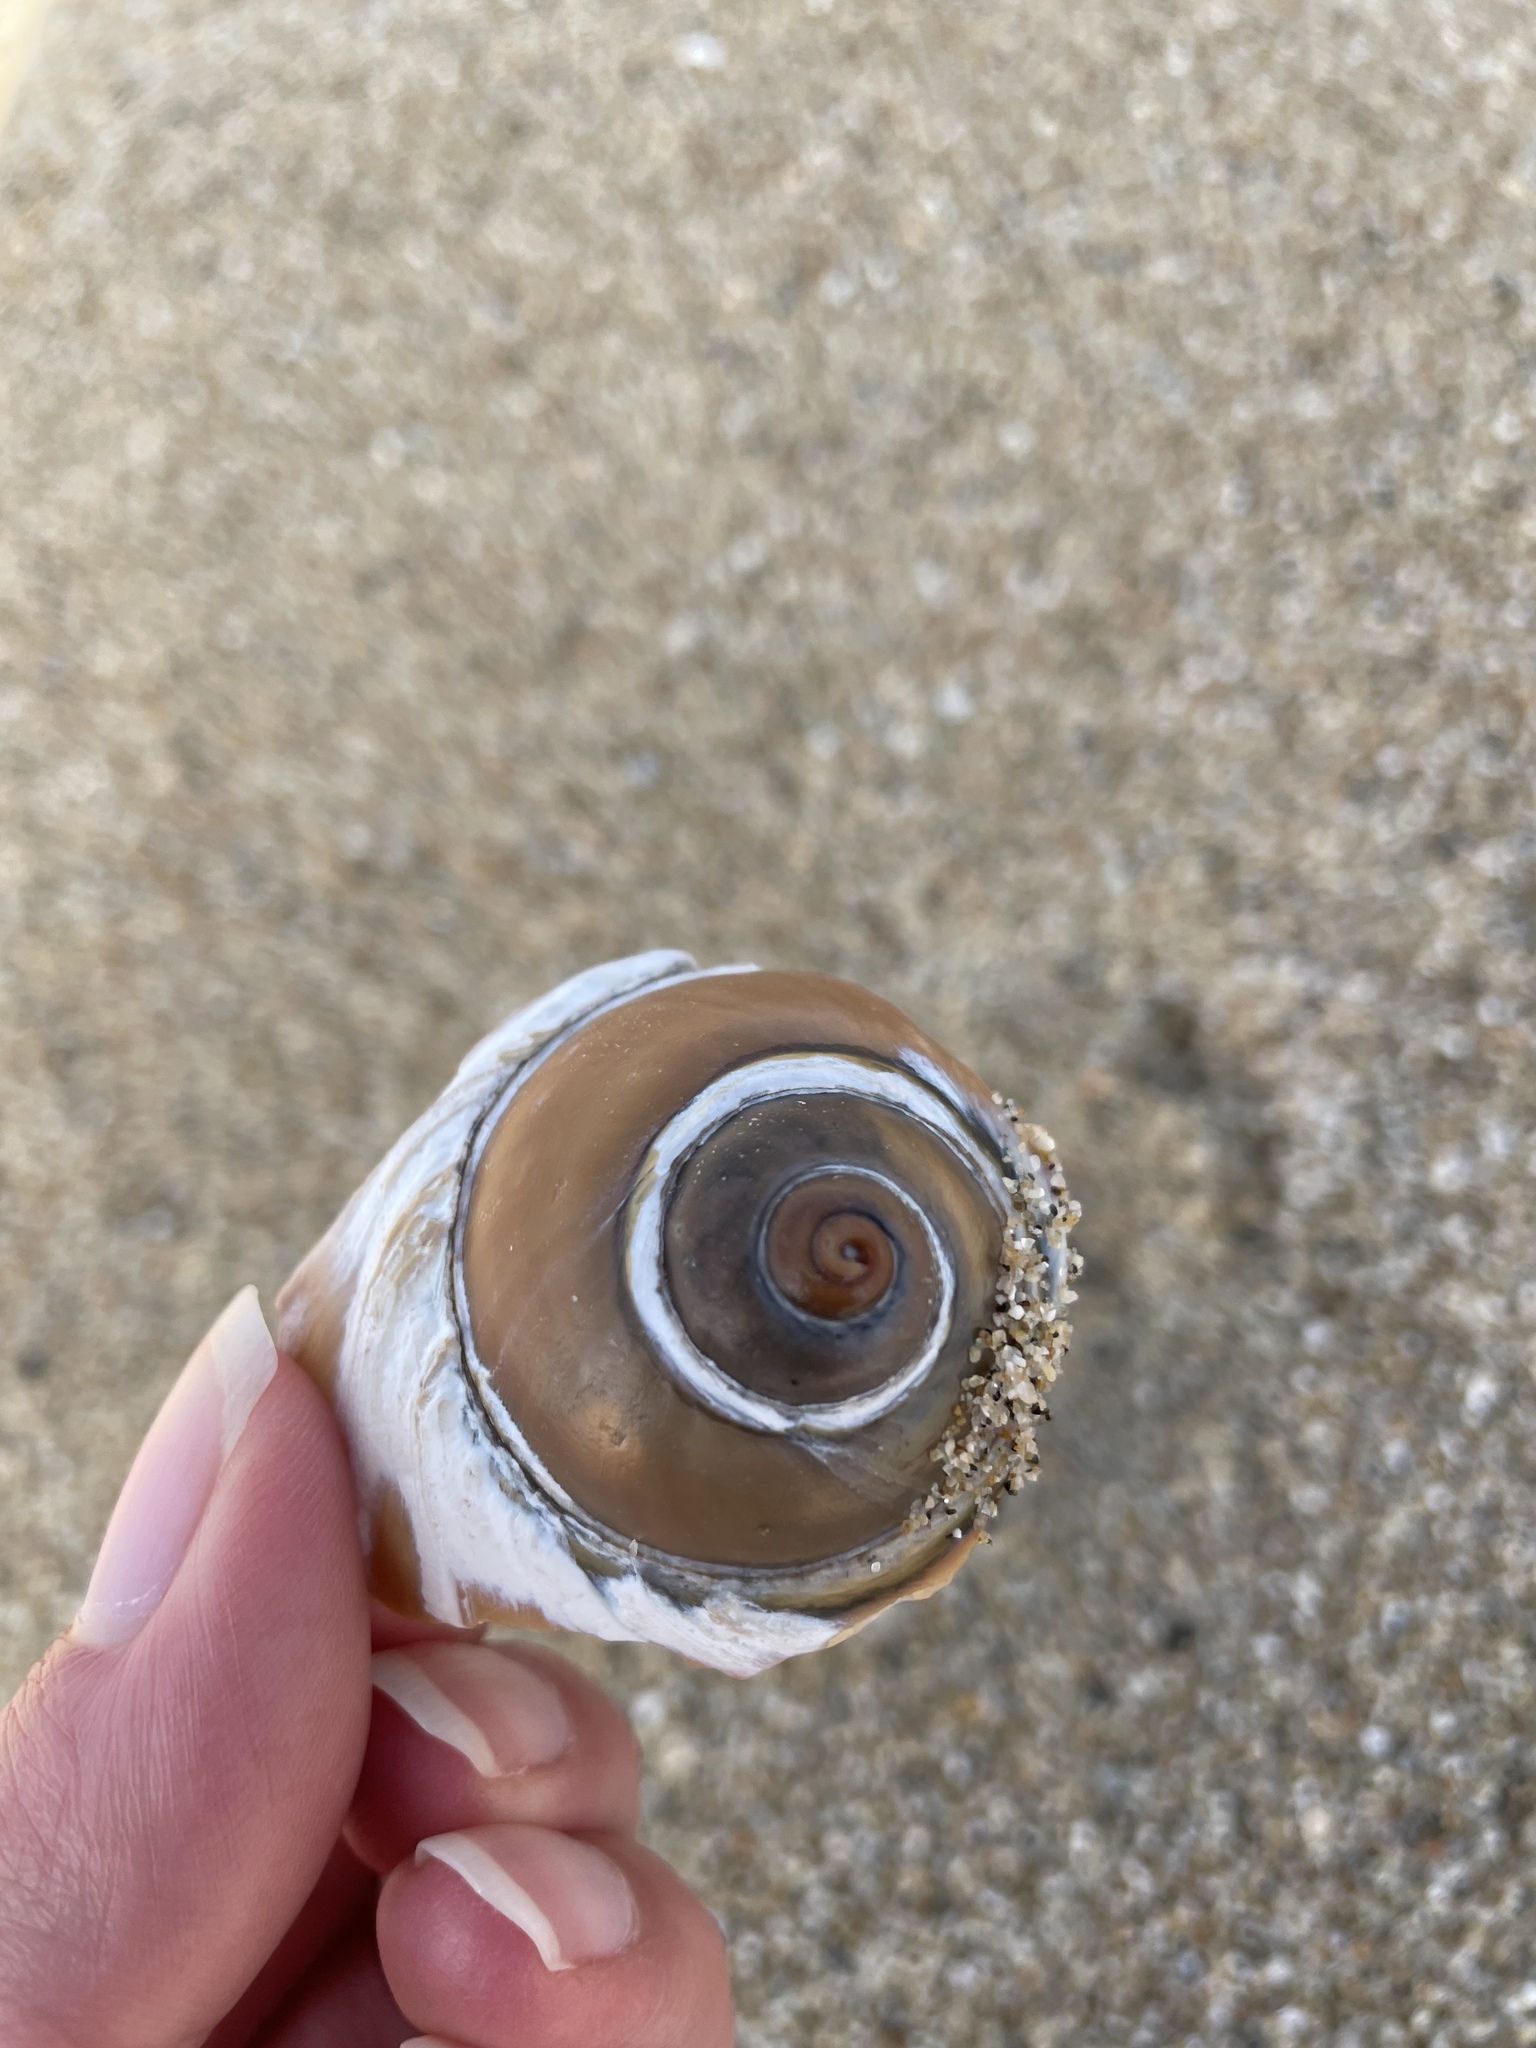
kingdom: Animalia
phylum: Mollusca
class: Gastropoda
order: Littorinimorpha
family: Naticidae
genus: Neverita
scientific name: Neverita lewisii
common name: Lewis' moonsnail
